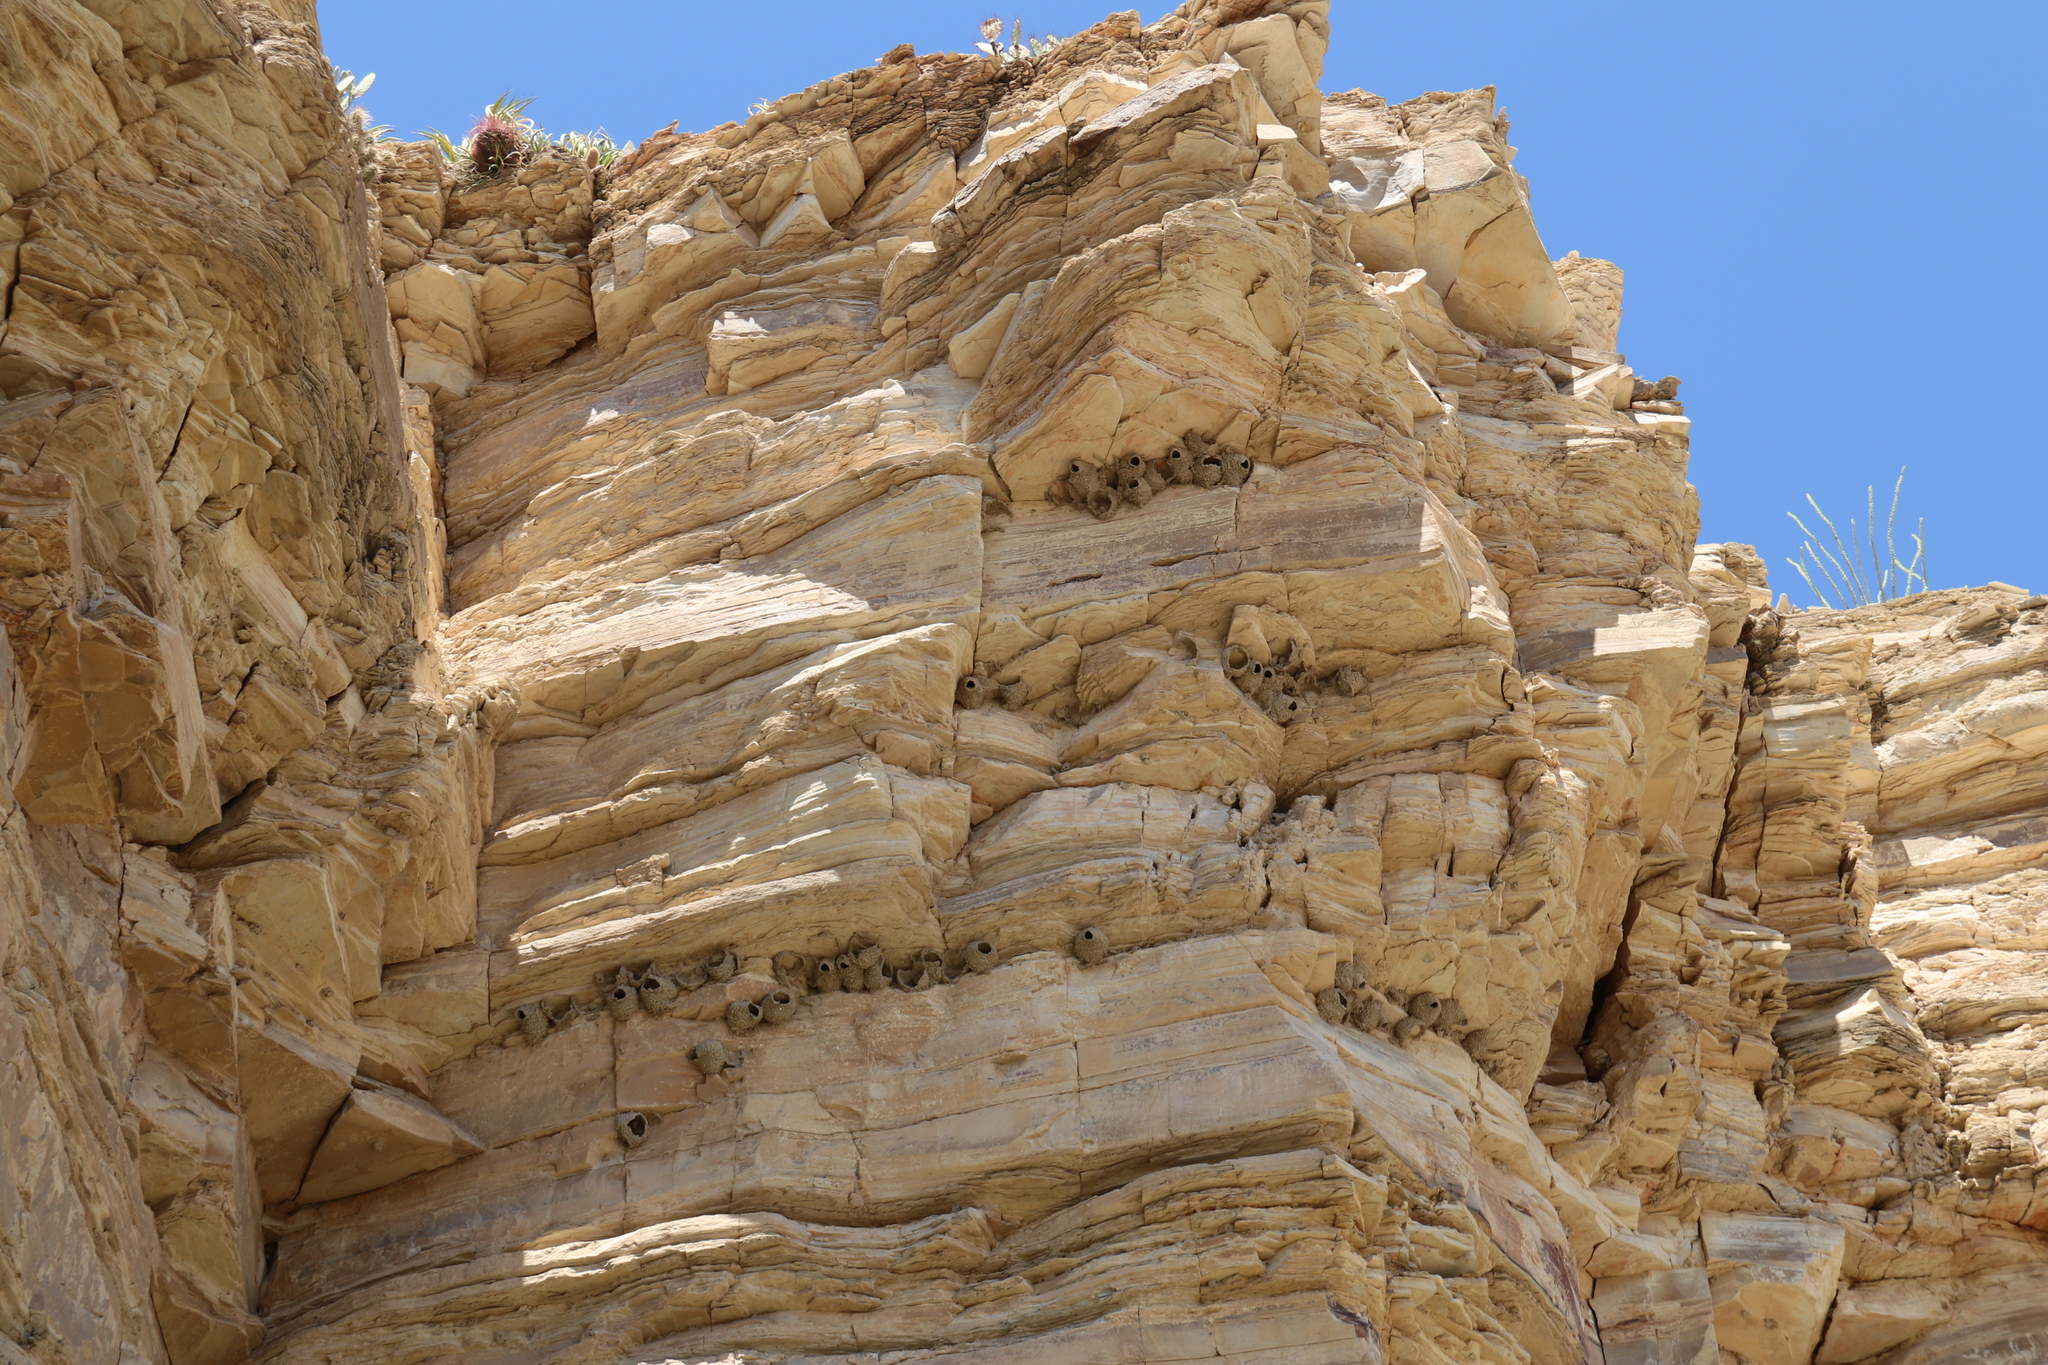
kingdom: Animalia
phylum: Chordata
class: Aves
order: Passeriformes
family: Hirundinidae
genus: Petrochelidon
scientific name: Petrochelidon pyrrhonota
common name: American cliff swallow
